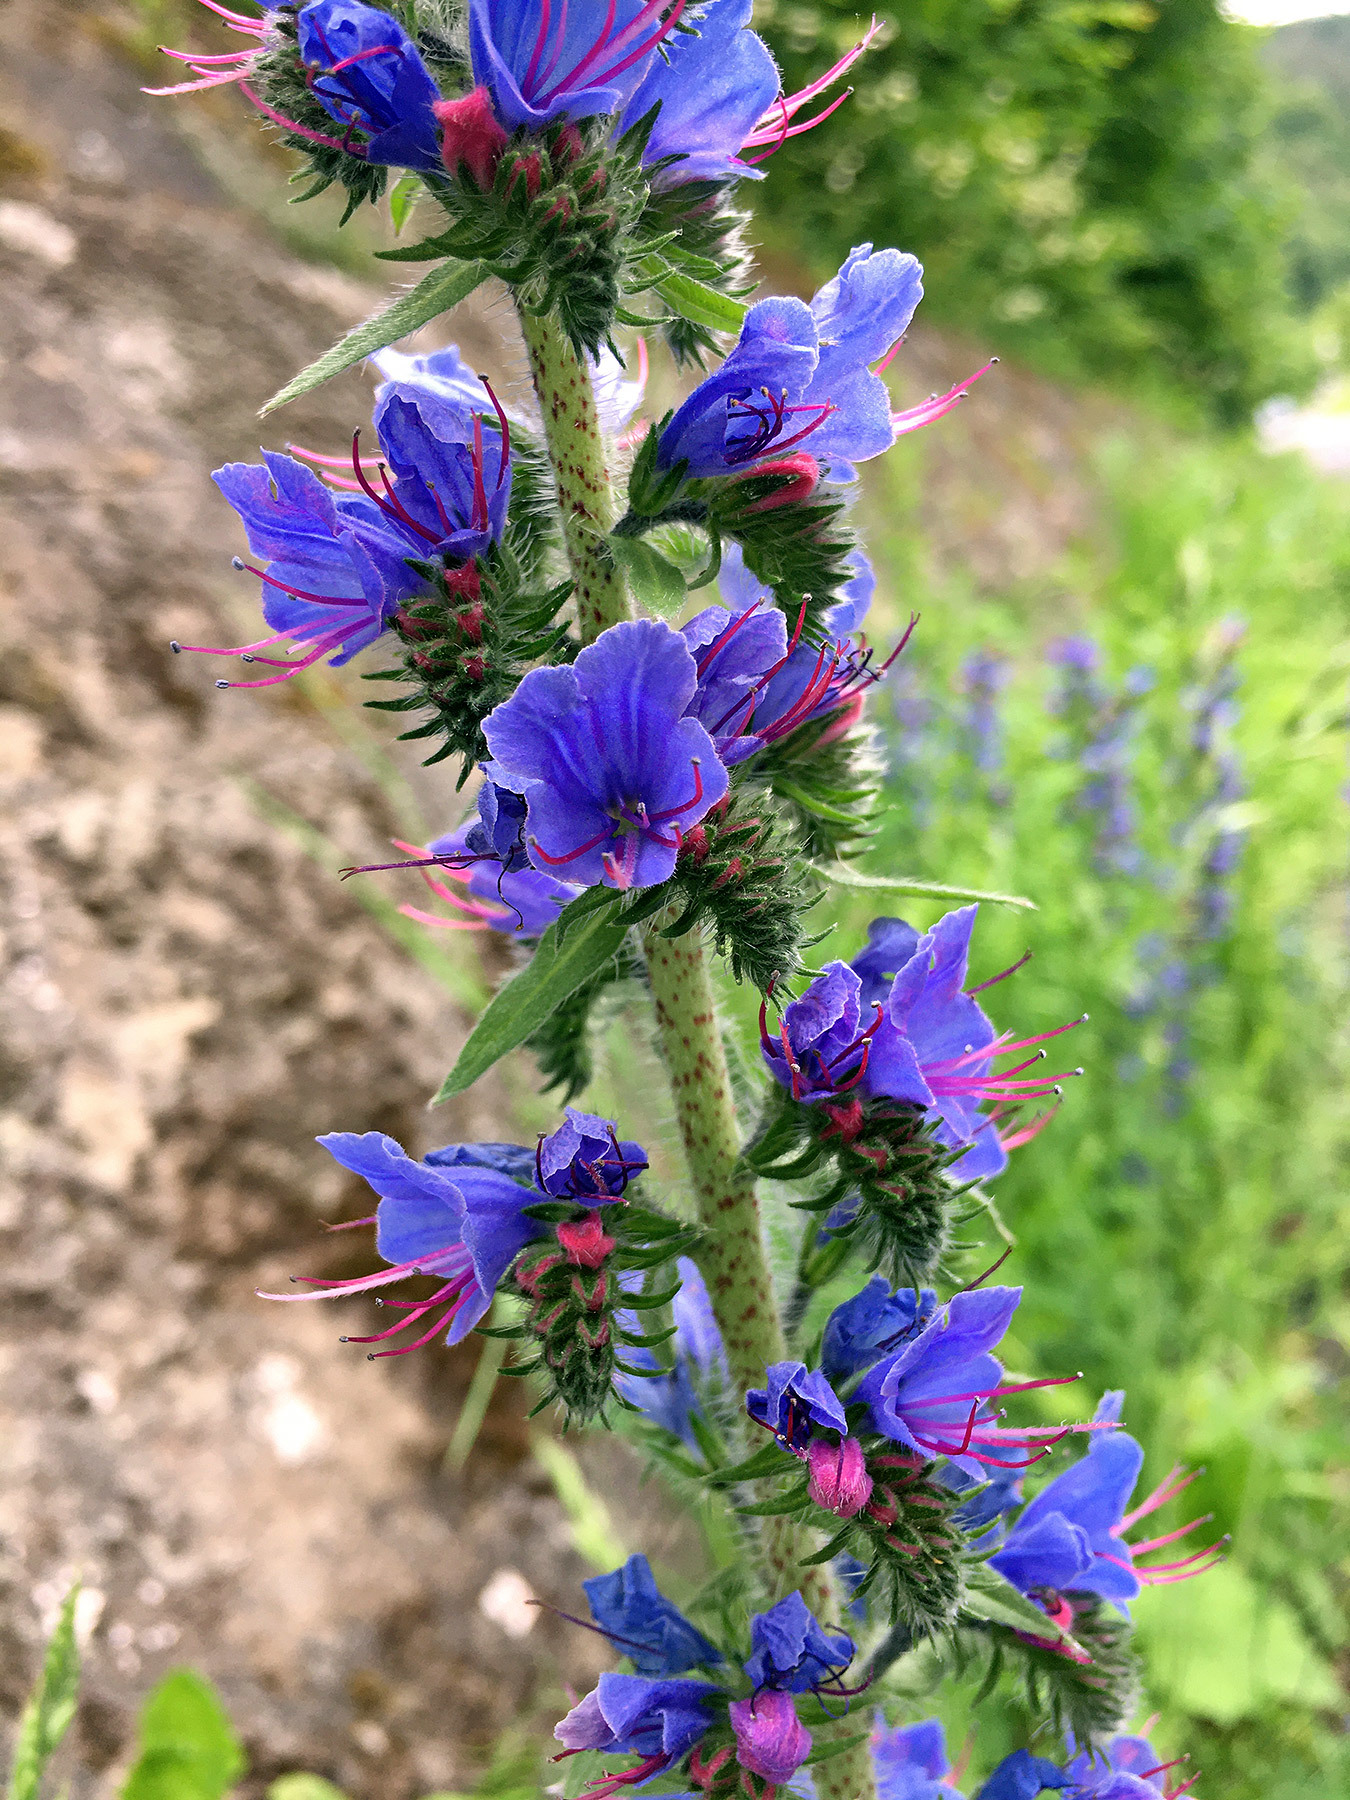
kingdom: Plantae
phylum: Tracheophyta
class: Magnoliopsida
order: Boraginales
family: Boraginaceae
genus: Echium
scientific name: Echium vulgare
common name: Common viper's bugloss
